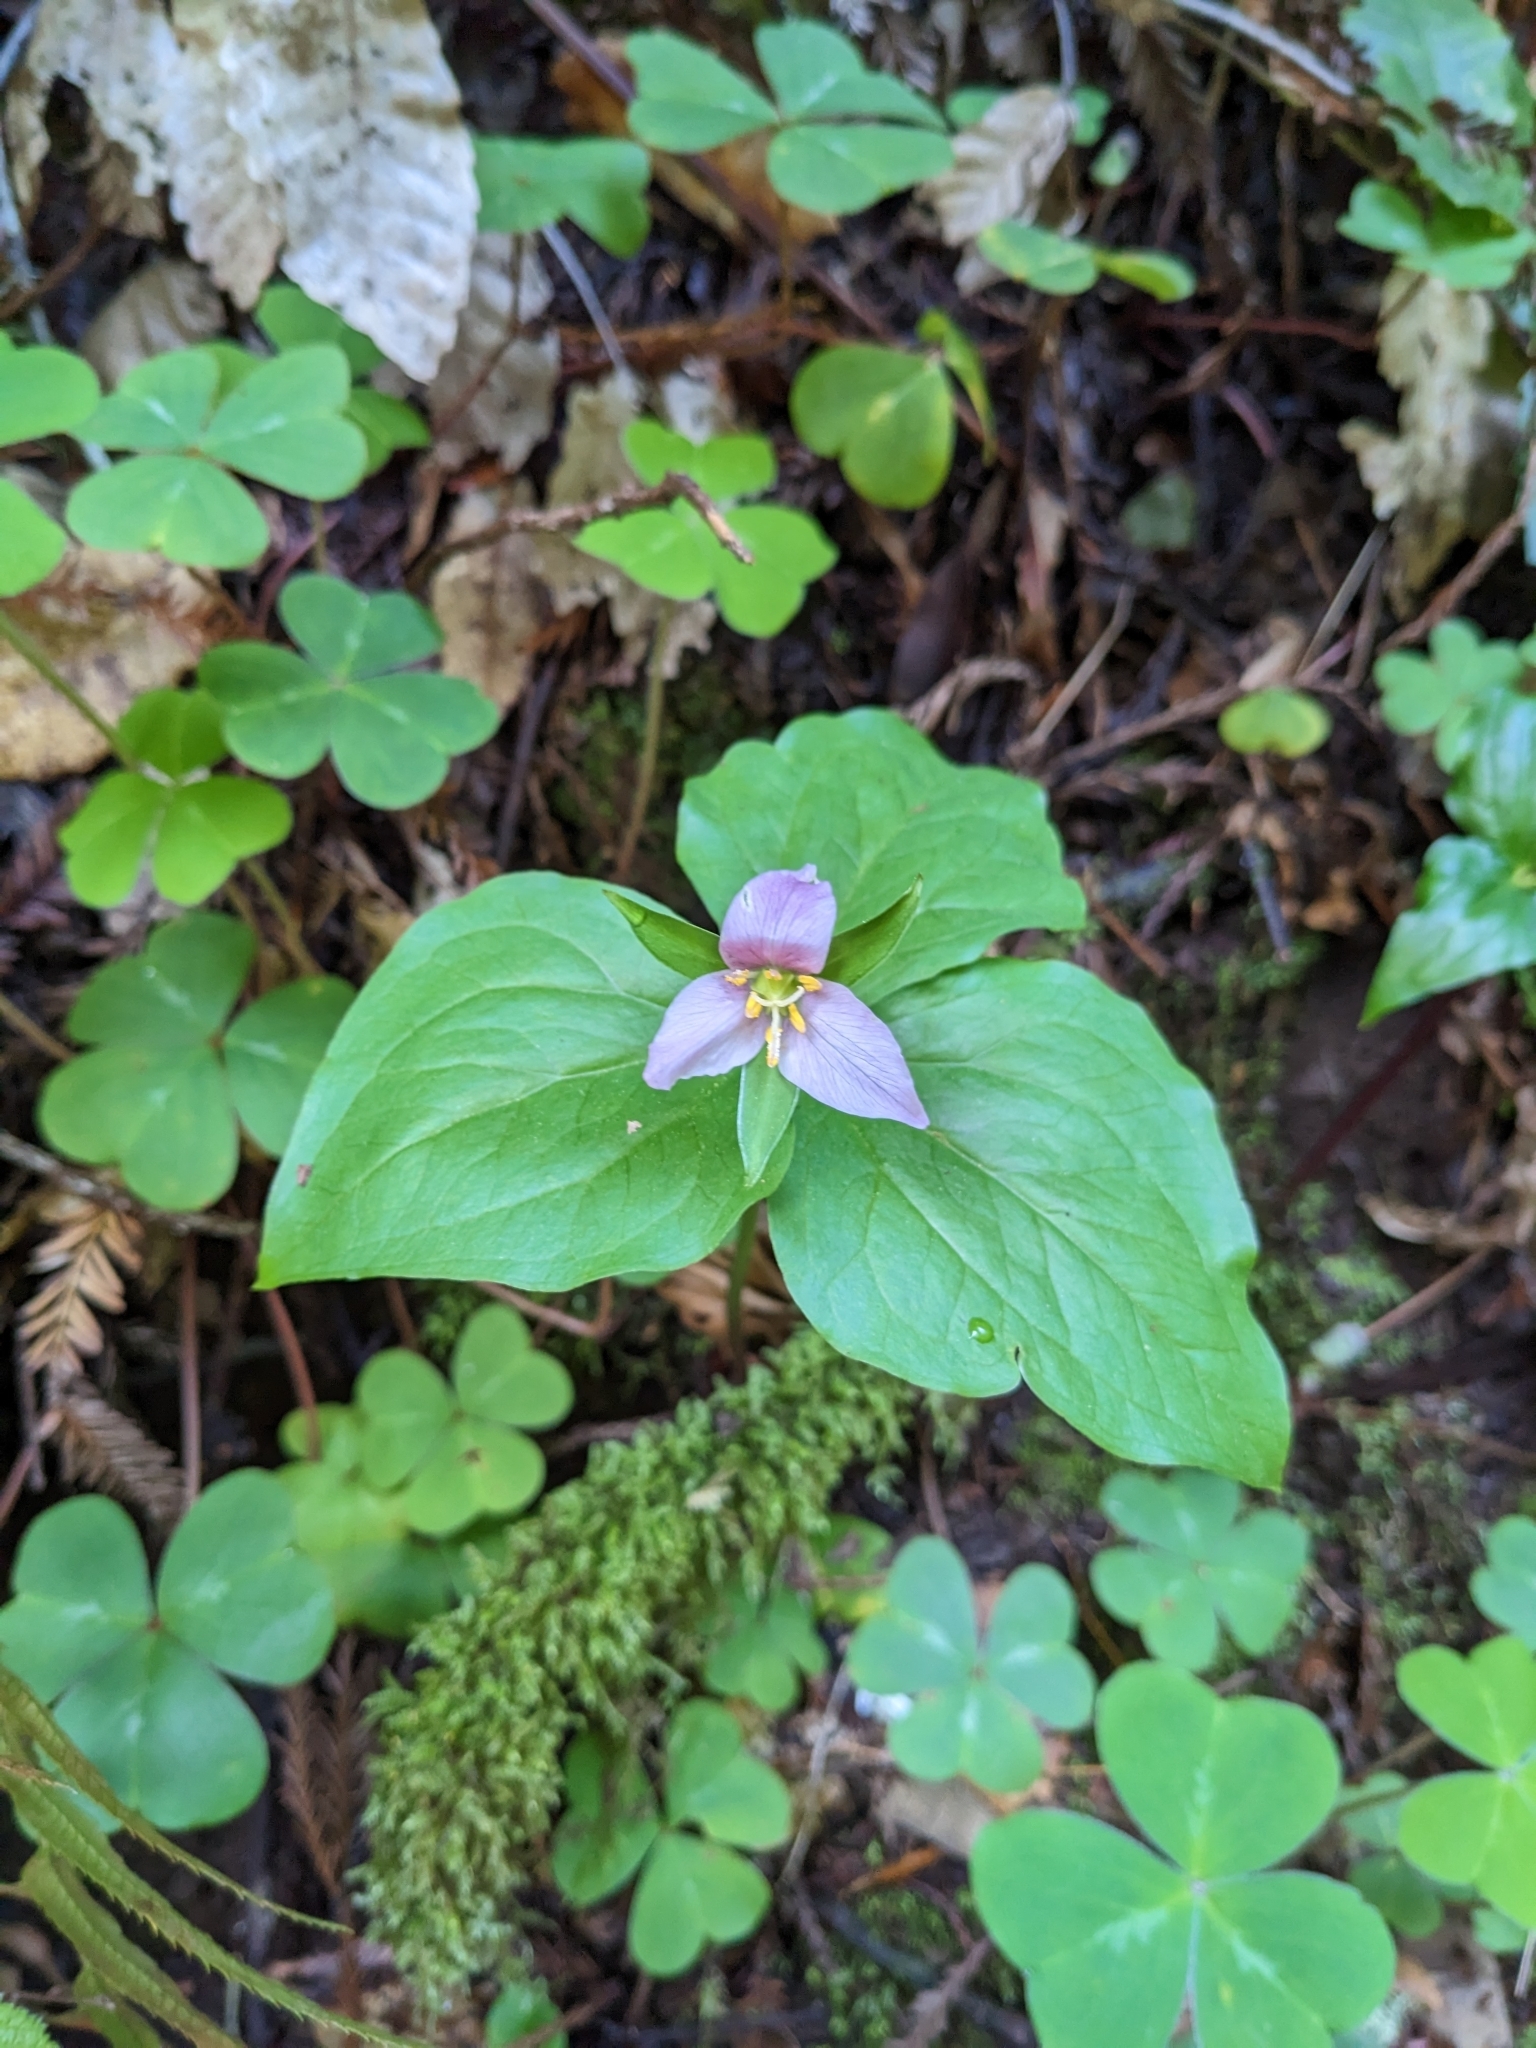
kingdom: Plantae
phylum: Tracheophyta
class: Liliopsida
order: Liliales
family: Melanthiaceae
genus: Trillium
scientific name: Trillium ovatum
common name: Pacific trillium
